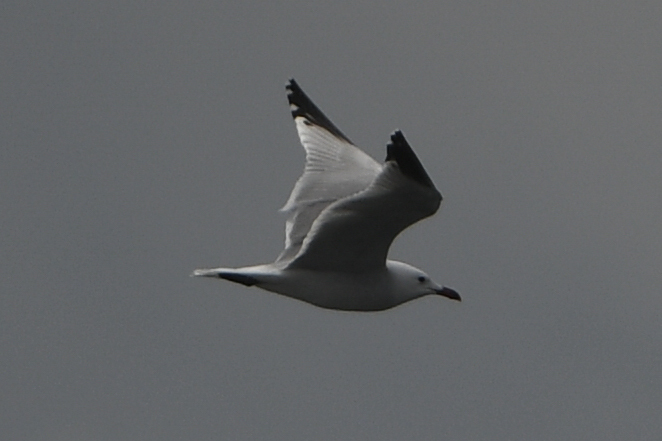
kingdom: Animalia
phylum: Chordata
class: Aves
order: Charadriiformes
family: Laridae
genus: Ichthyaetus
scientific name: Ichthyaetus audouinii
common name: Audouin's gull
